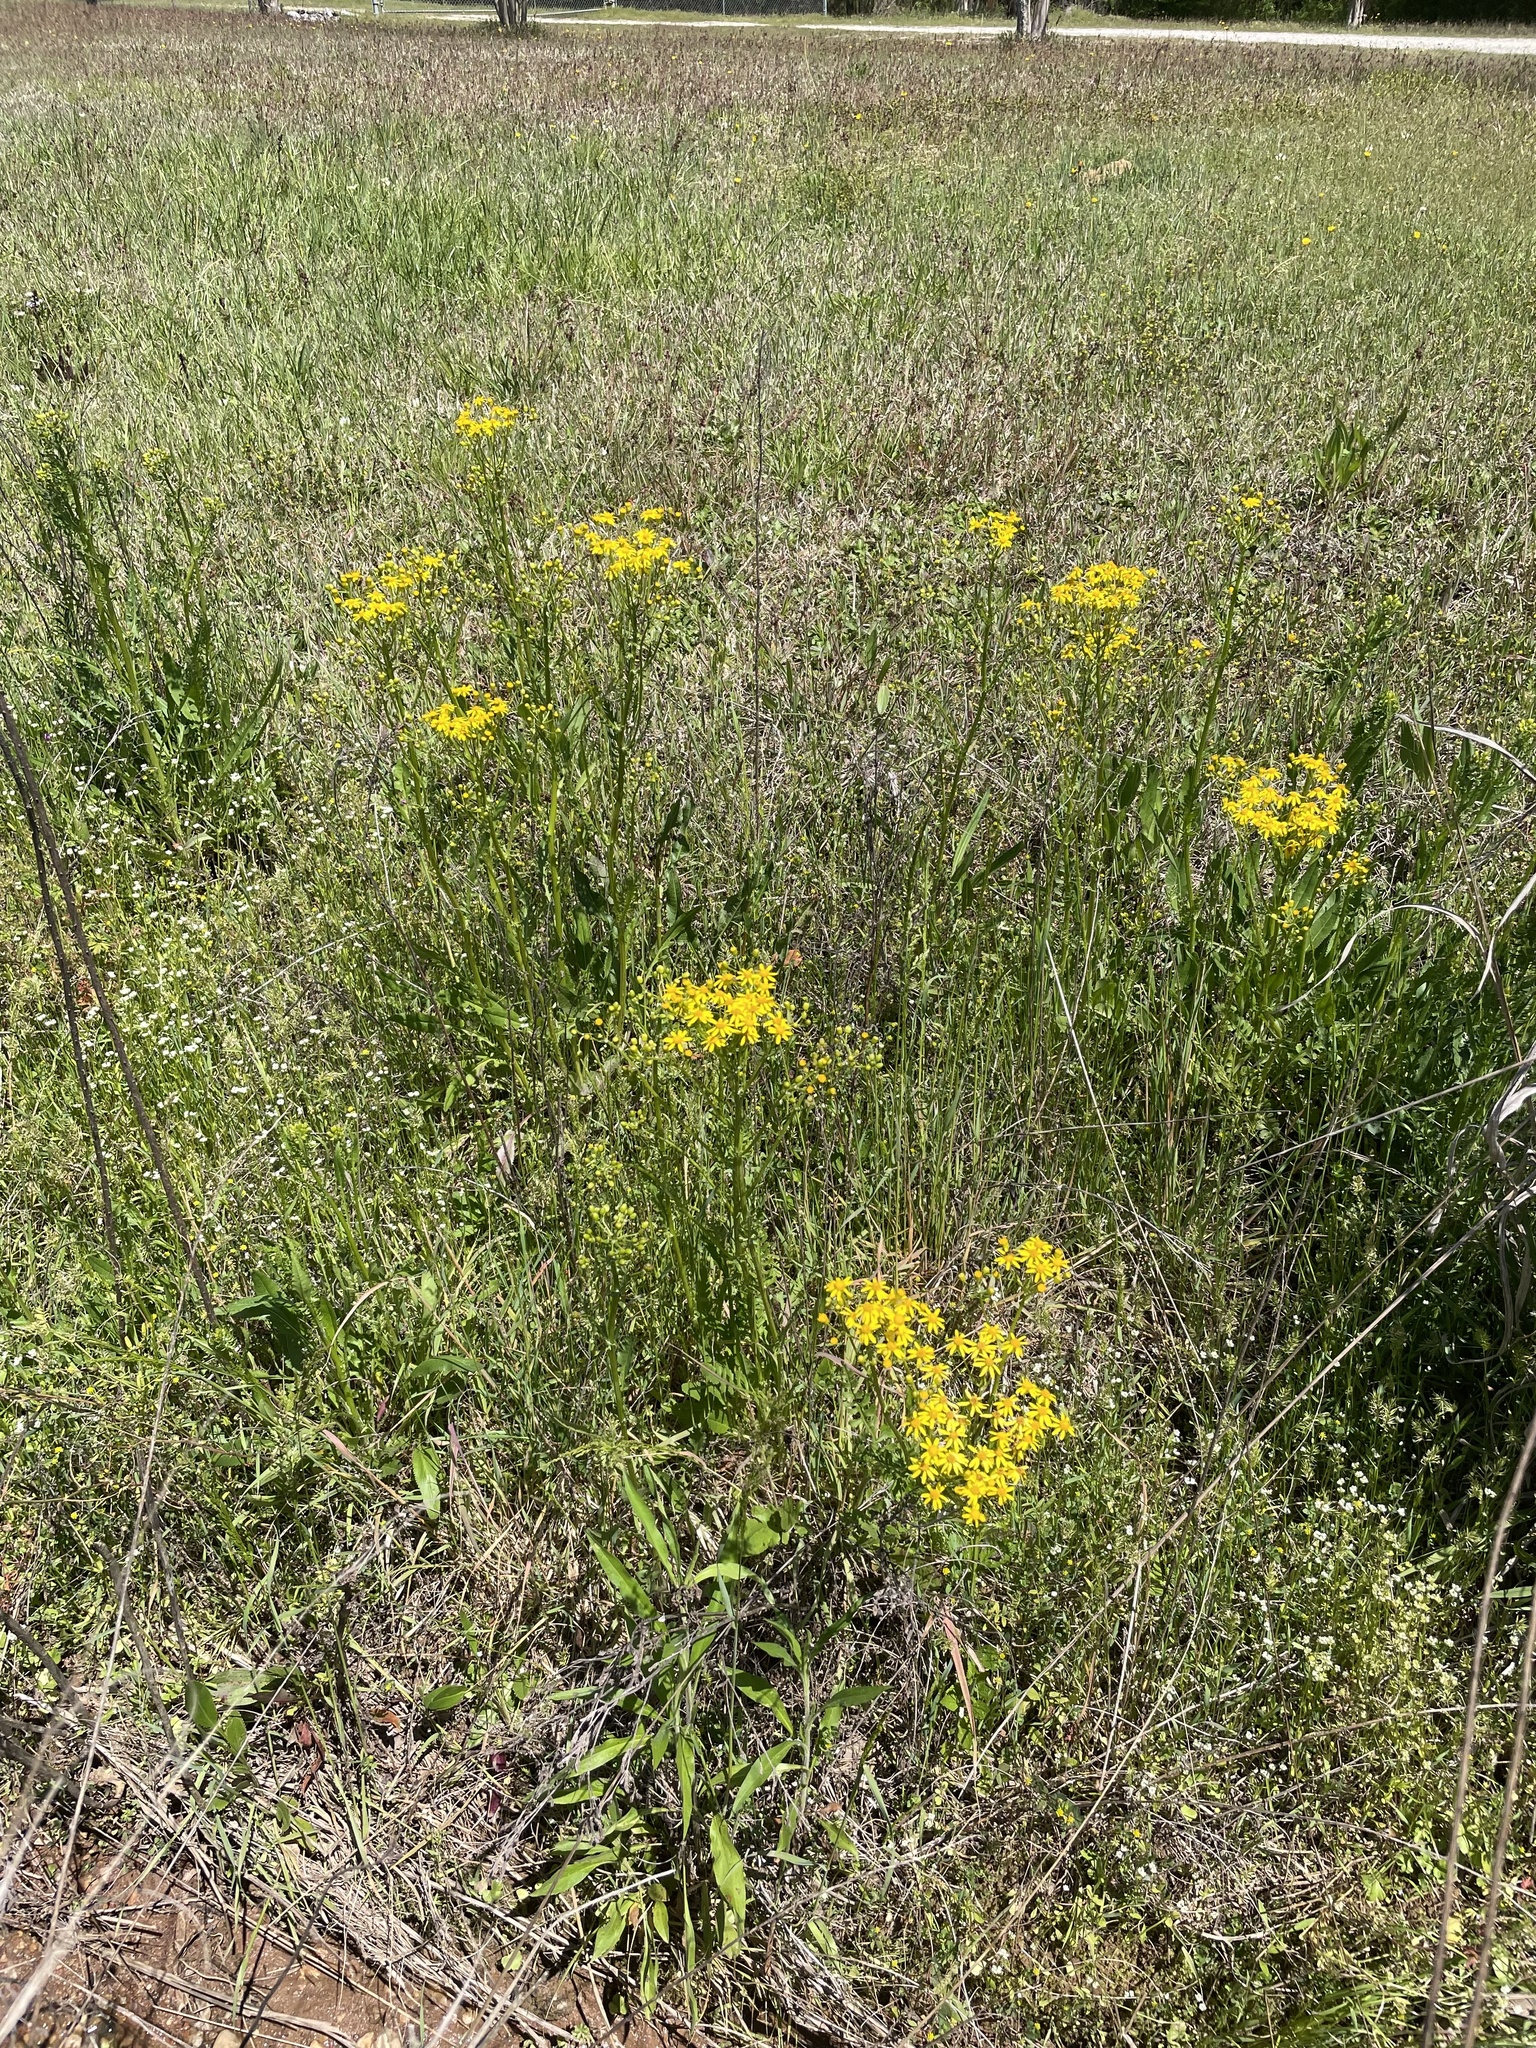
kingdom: Plantae
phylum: Tracheophyta
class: Magnoliopsida
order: Asterales
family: Asteraceae
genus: Packera
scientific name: Packera anonyma
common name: Small ragwort
